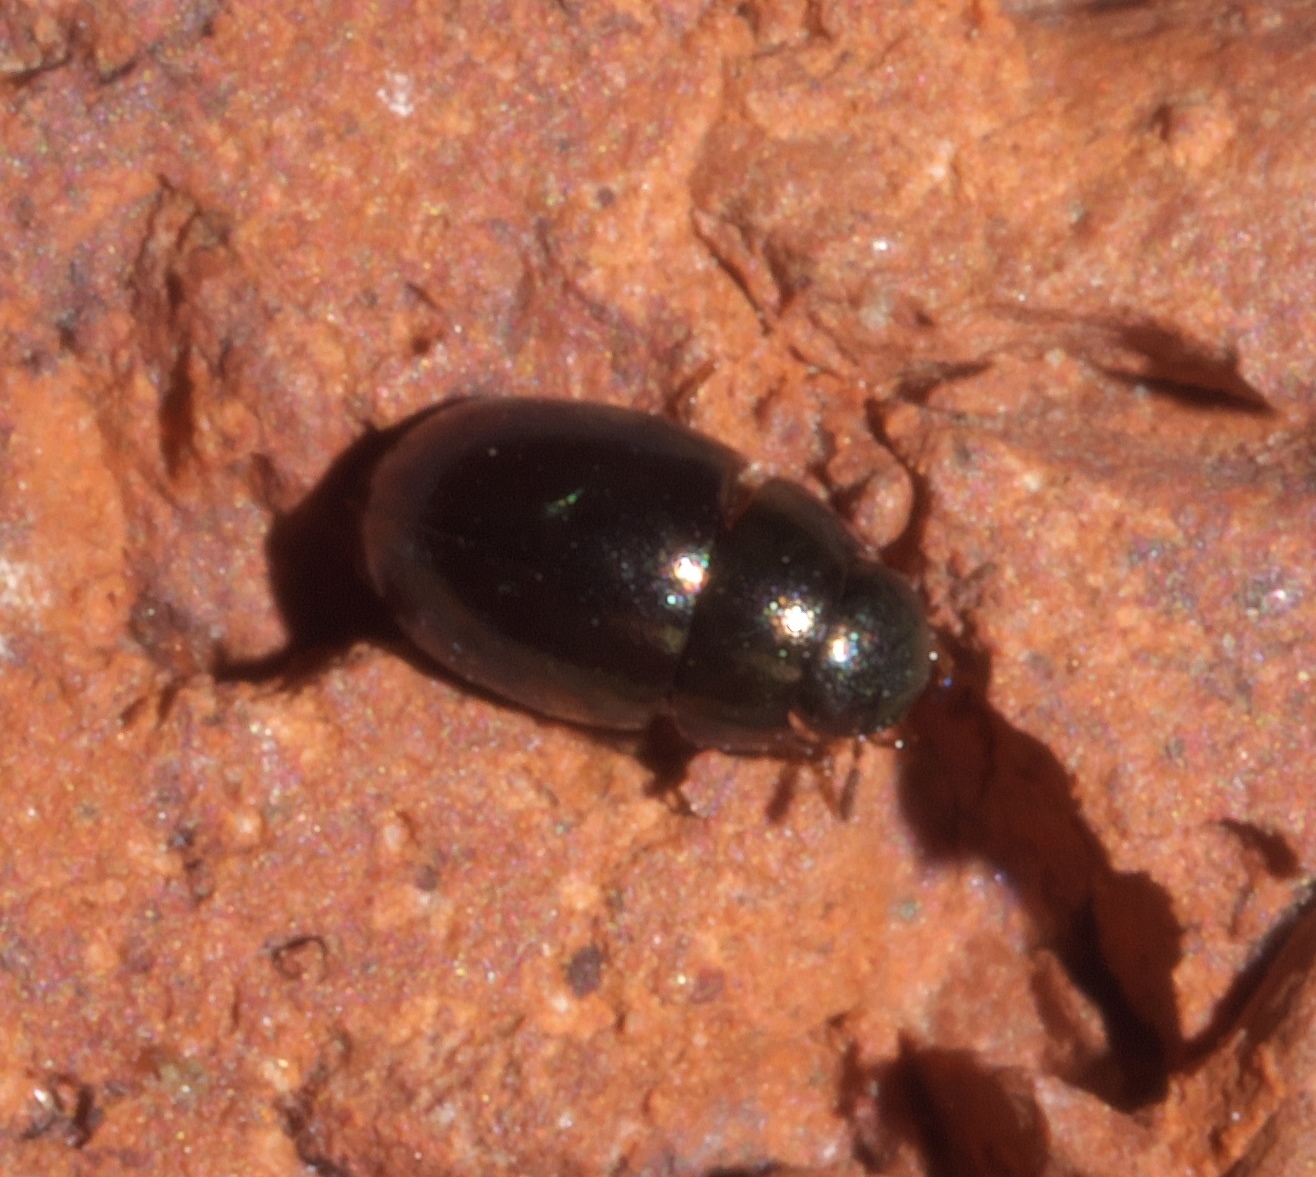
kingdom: Animalia
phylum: Arthropoda
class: Insecta
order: Coleoptera
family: Hydrophilidae
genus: Paracymus
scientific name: Paracymus
